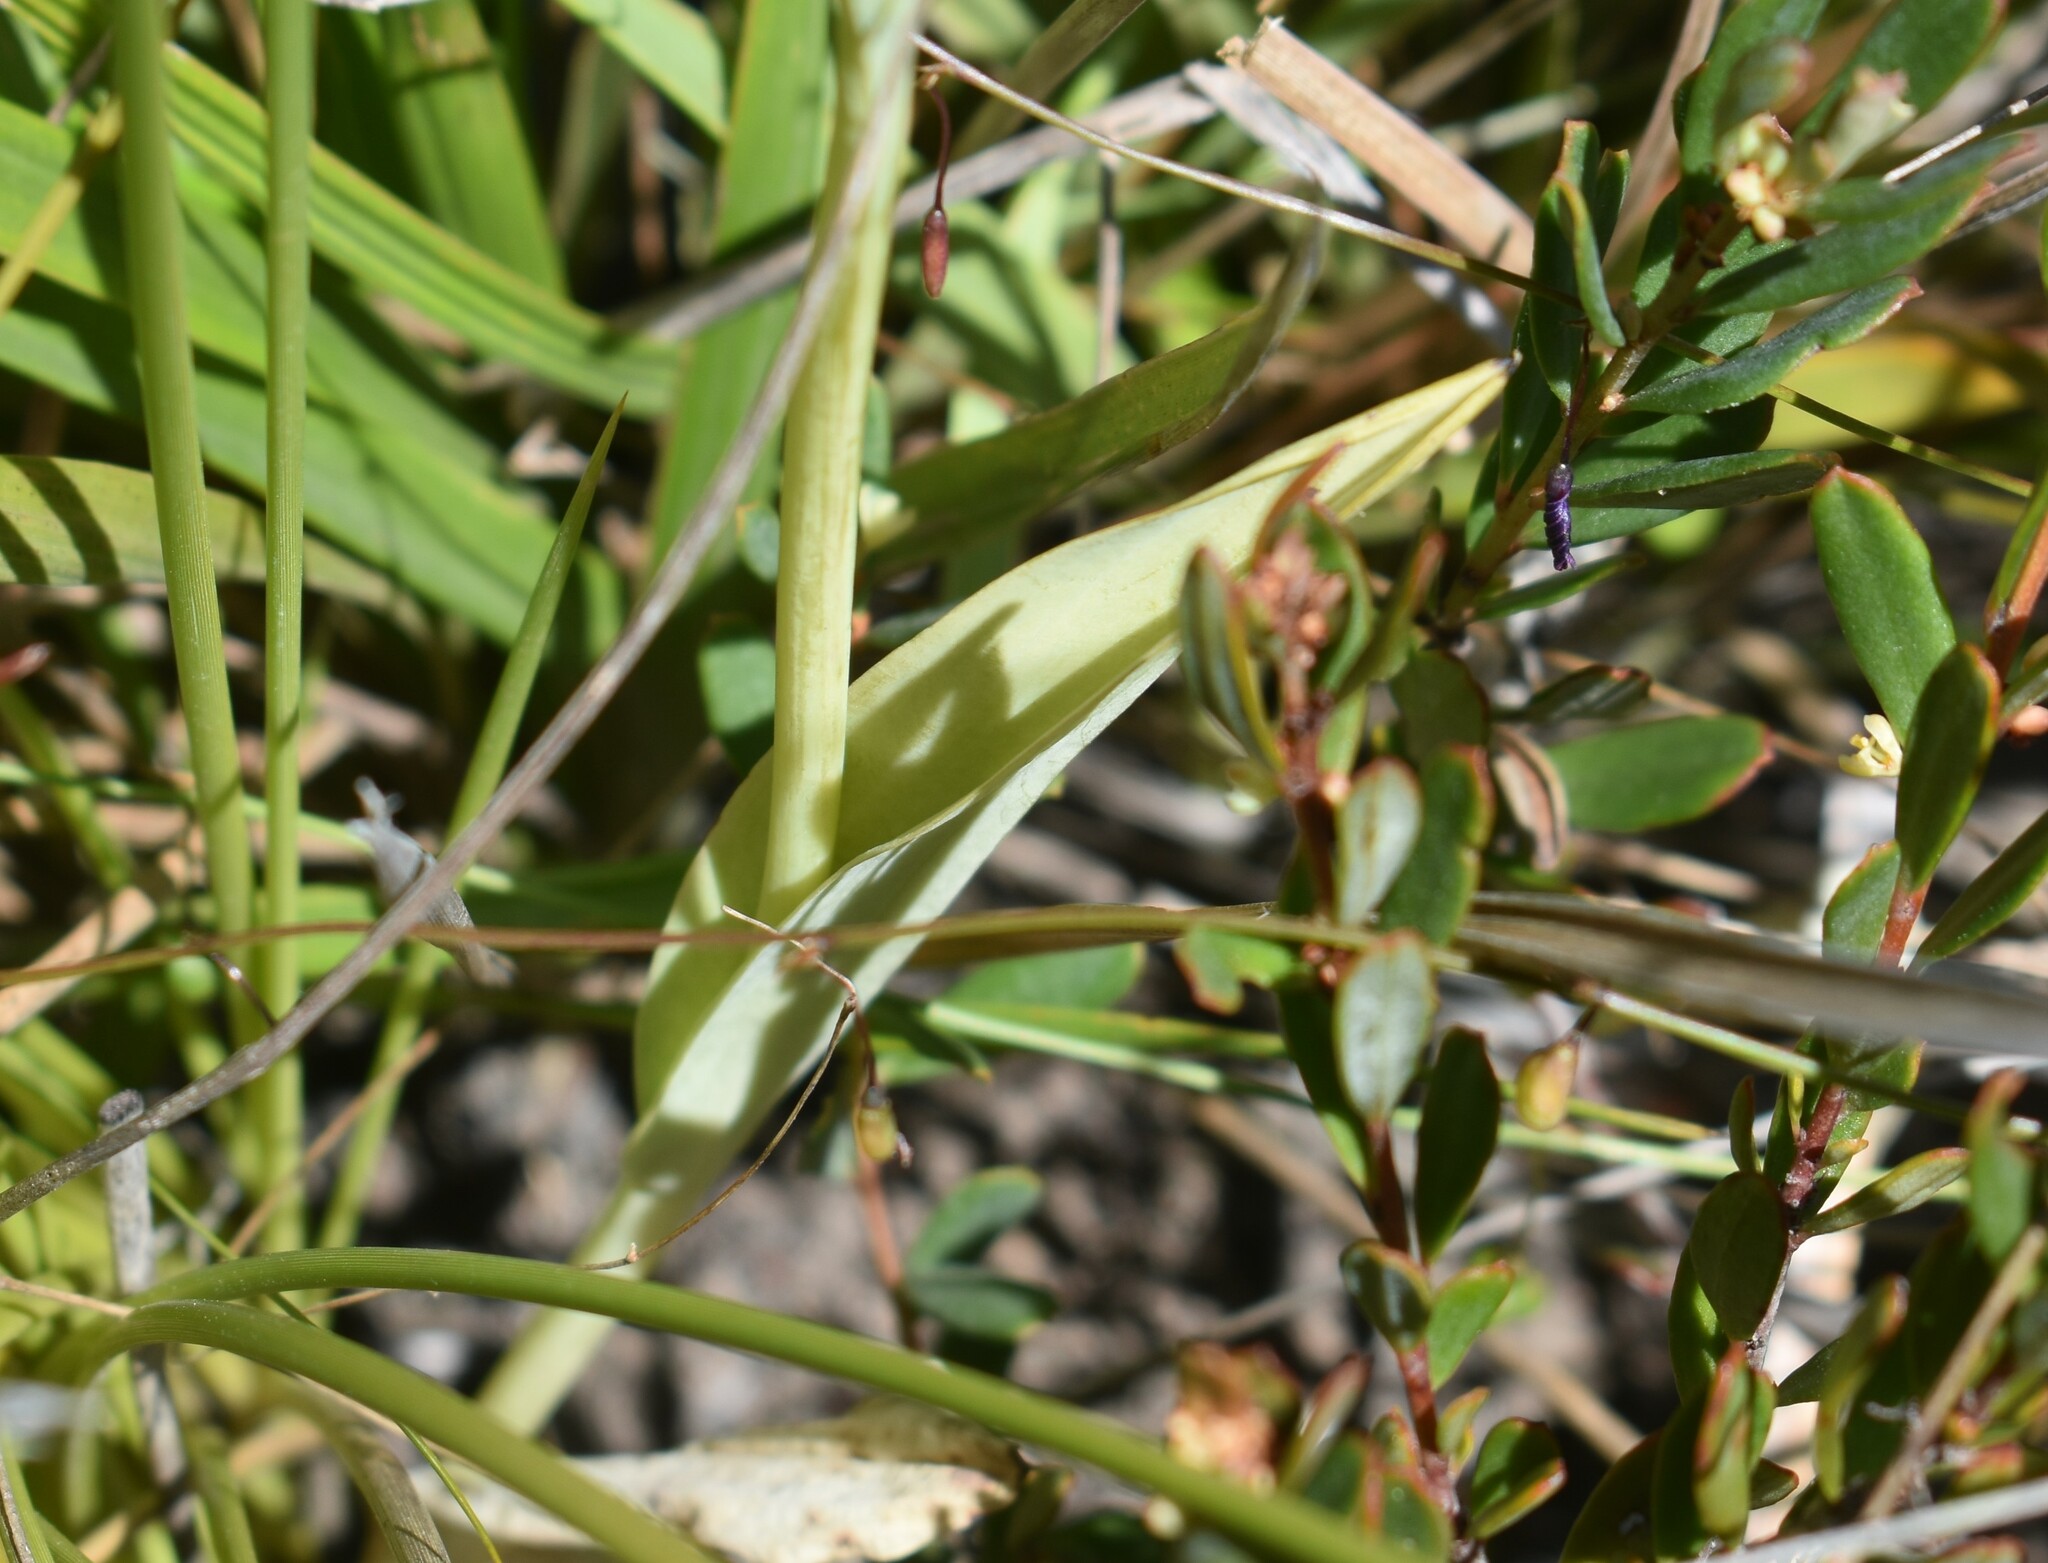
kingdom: Plantae
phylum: Tracheophyta
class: Liliopsida
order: Asparagales
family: Orchidaceae
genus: Pterygodium
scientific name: Pterygodium catholicum
